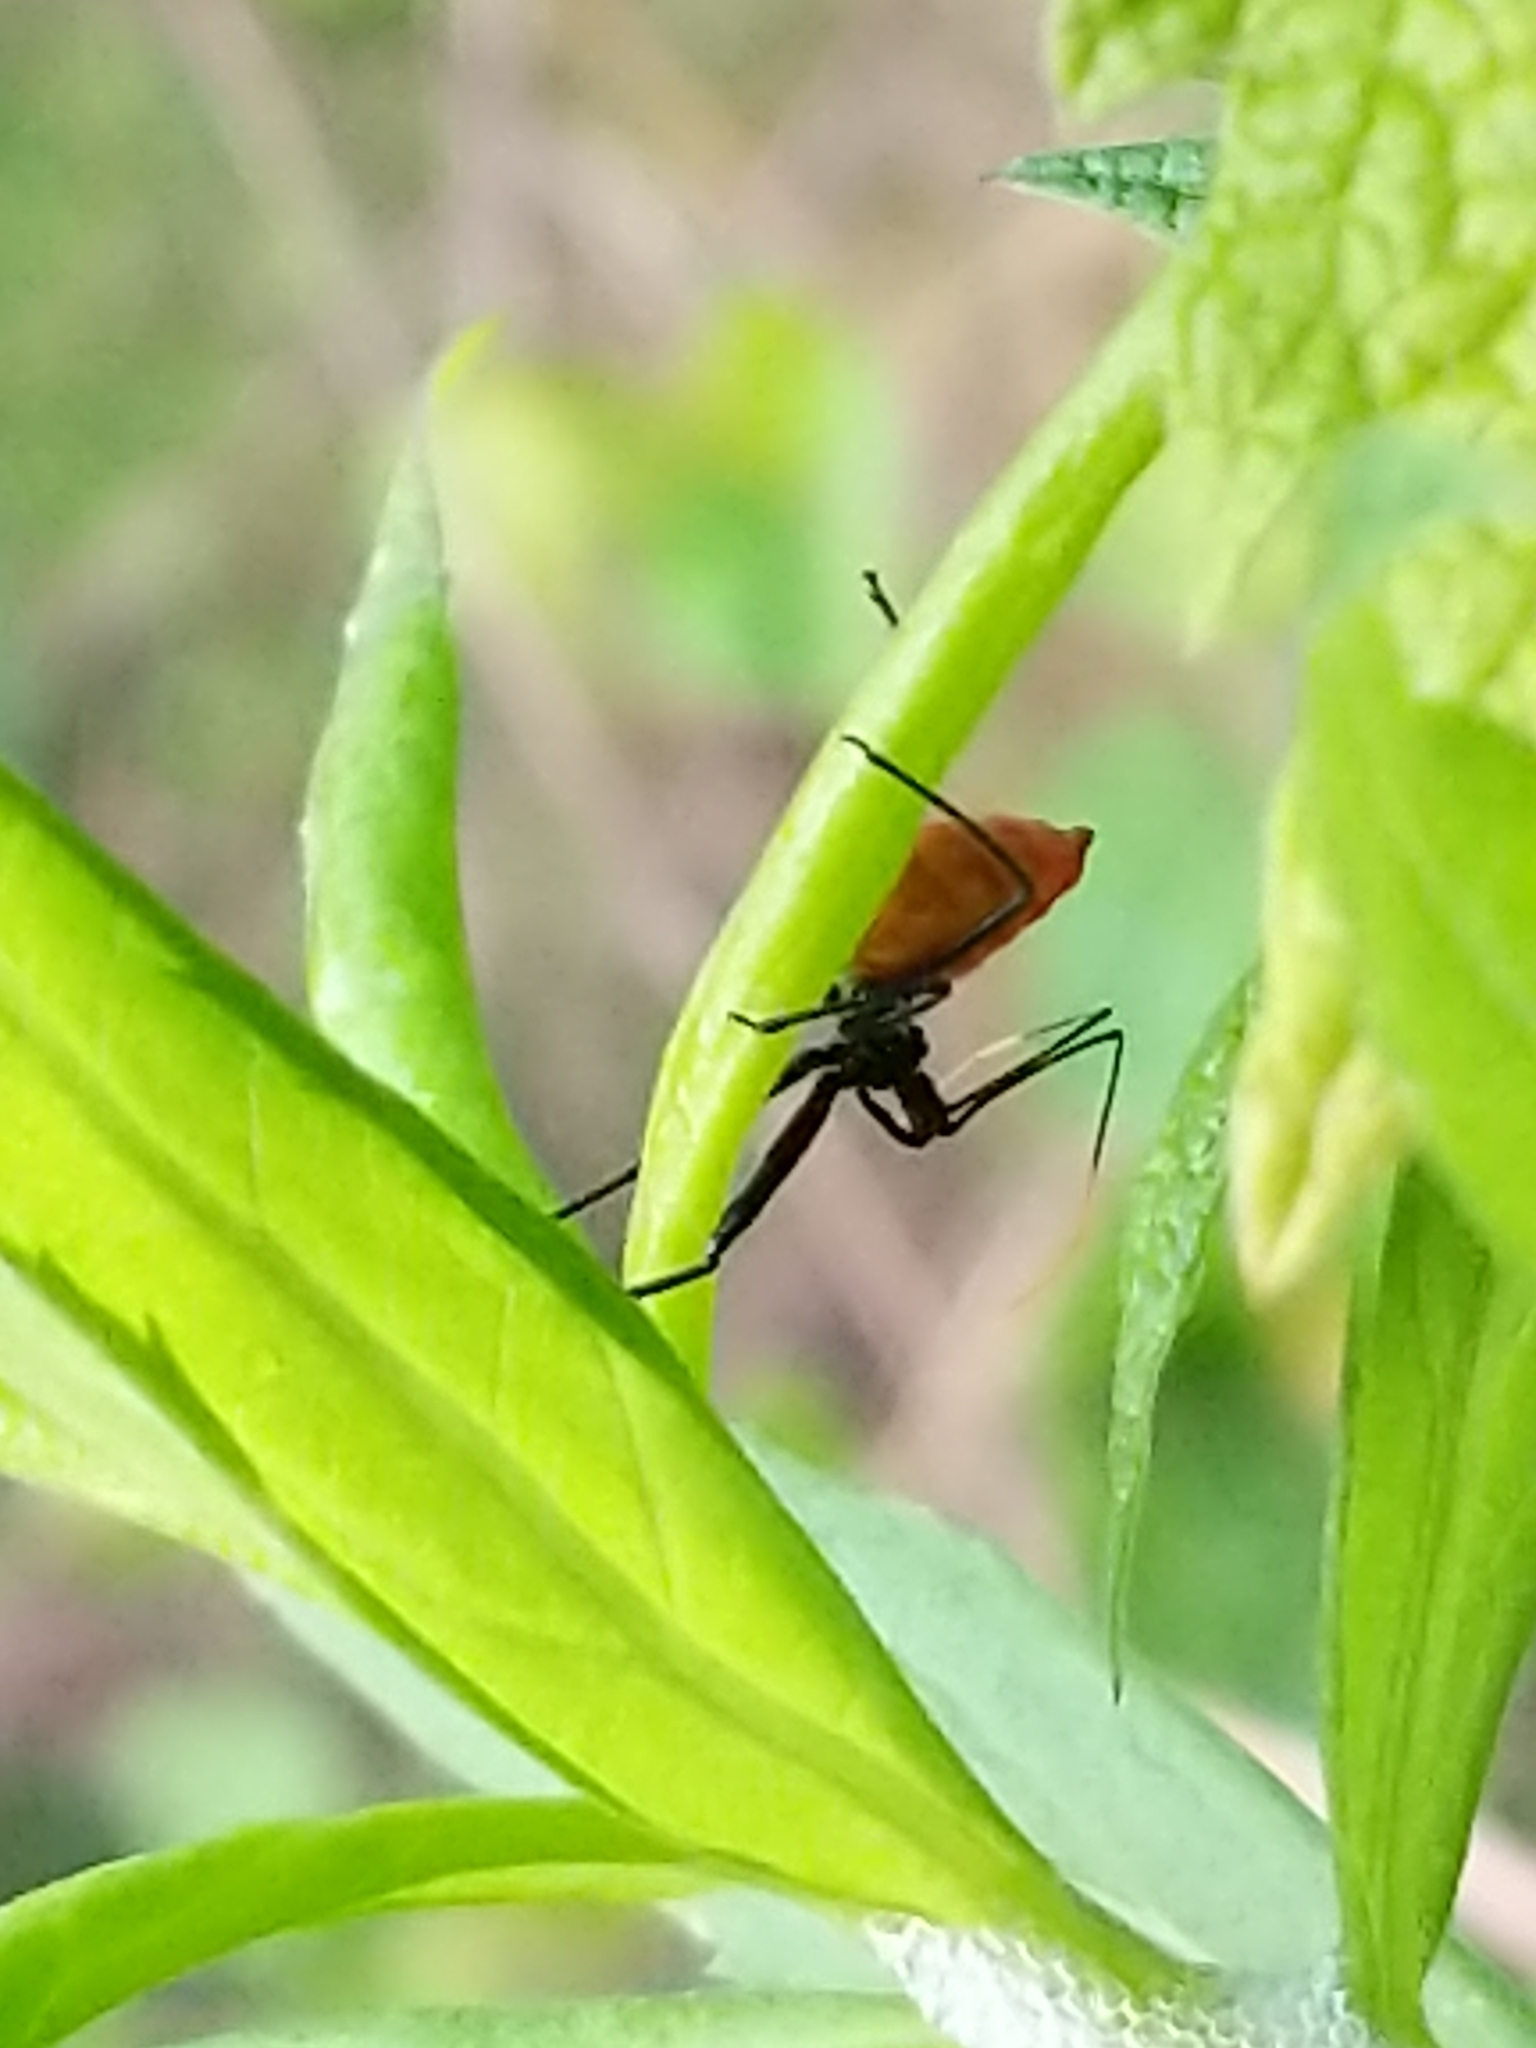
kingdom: Animalia
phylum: Arthropoda
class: Insecta
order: Hemiptera
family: Reduviidae
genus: Arilus
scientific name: Arilus cristatus
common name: North american wheel bug
